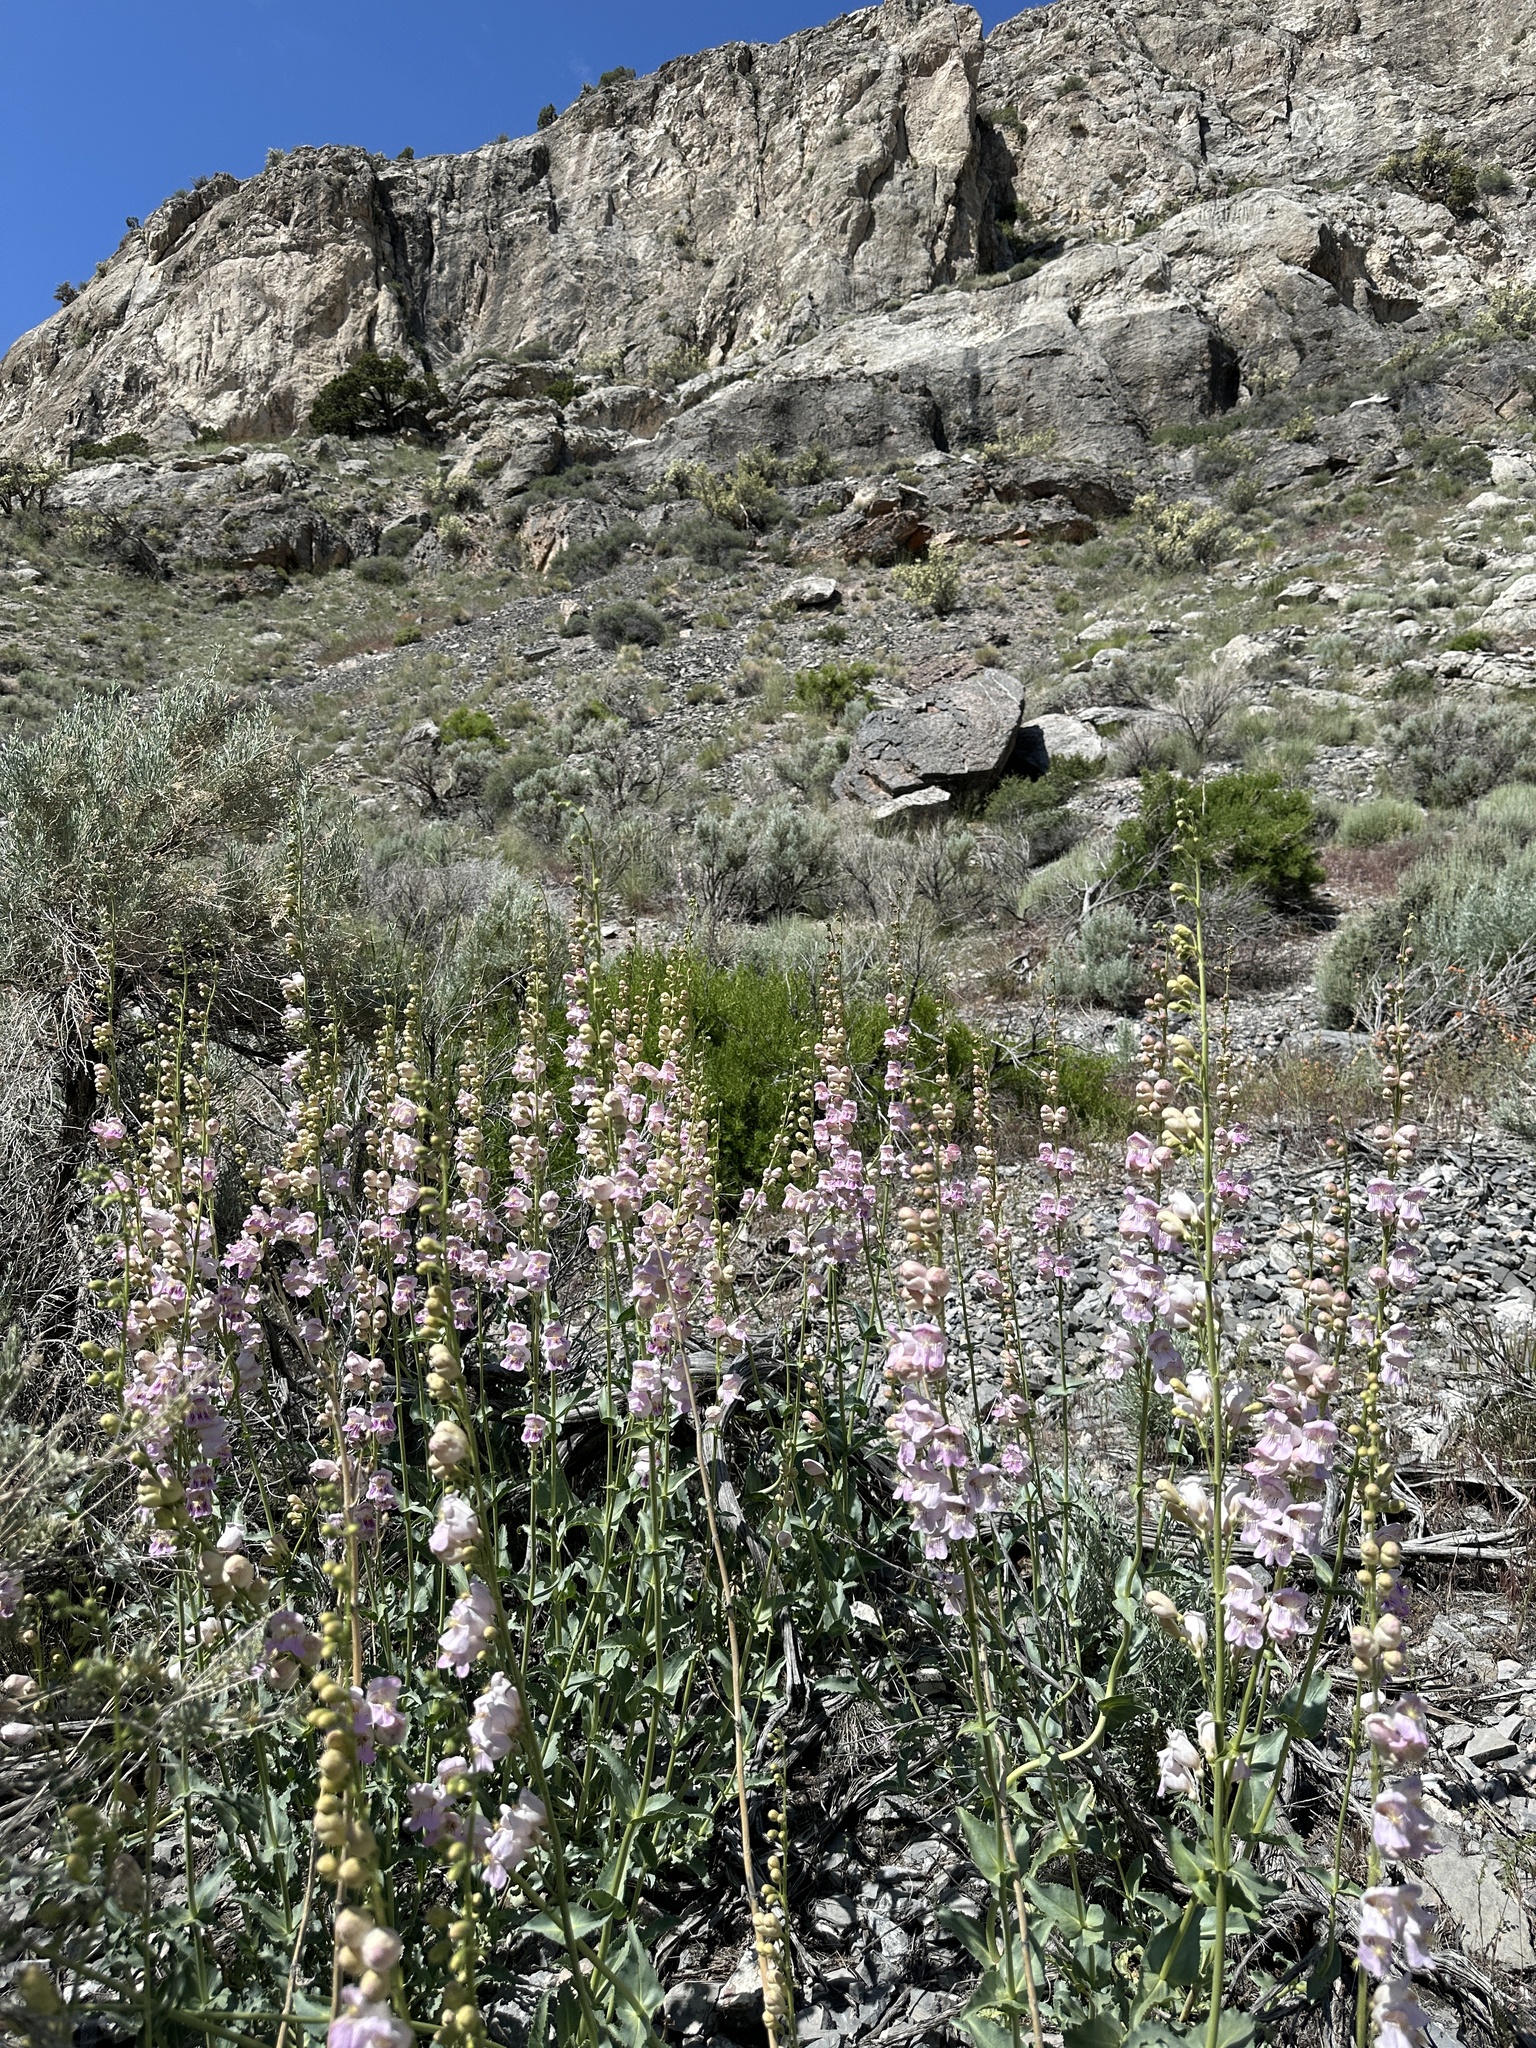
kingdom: Plantae
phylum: Tracheophyta
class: Magnoliopsida
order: Lamiales
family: Plantaginaceae
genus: Penstemon
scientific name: Penstemon palmeri
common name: Palmer penstemon
